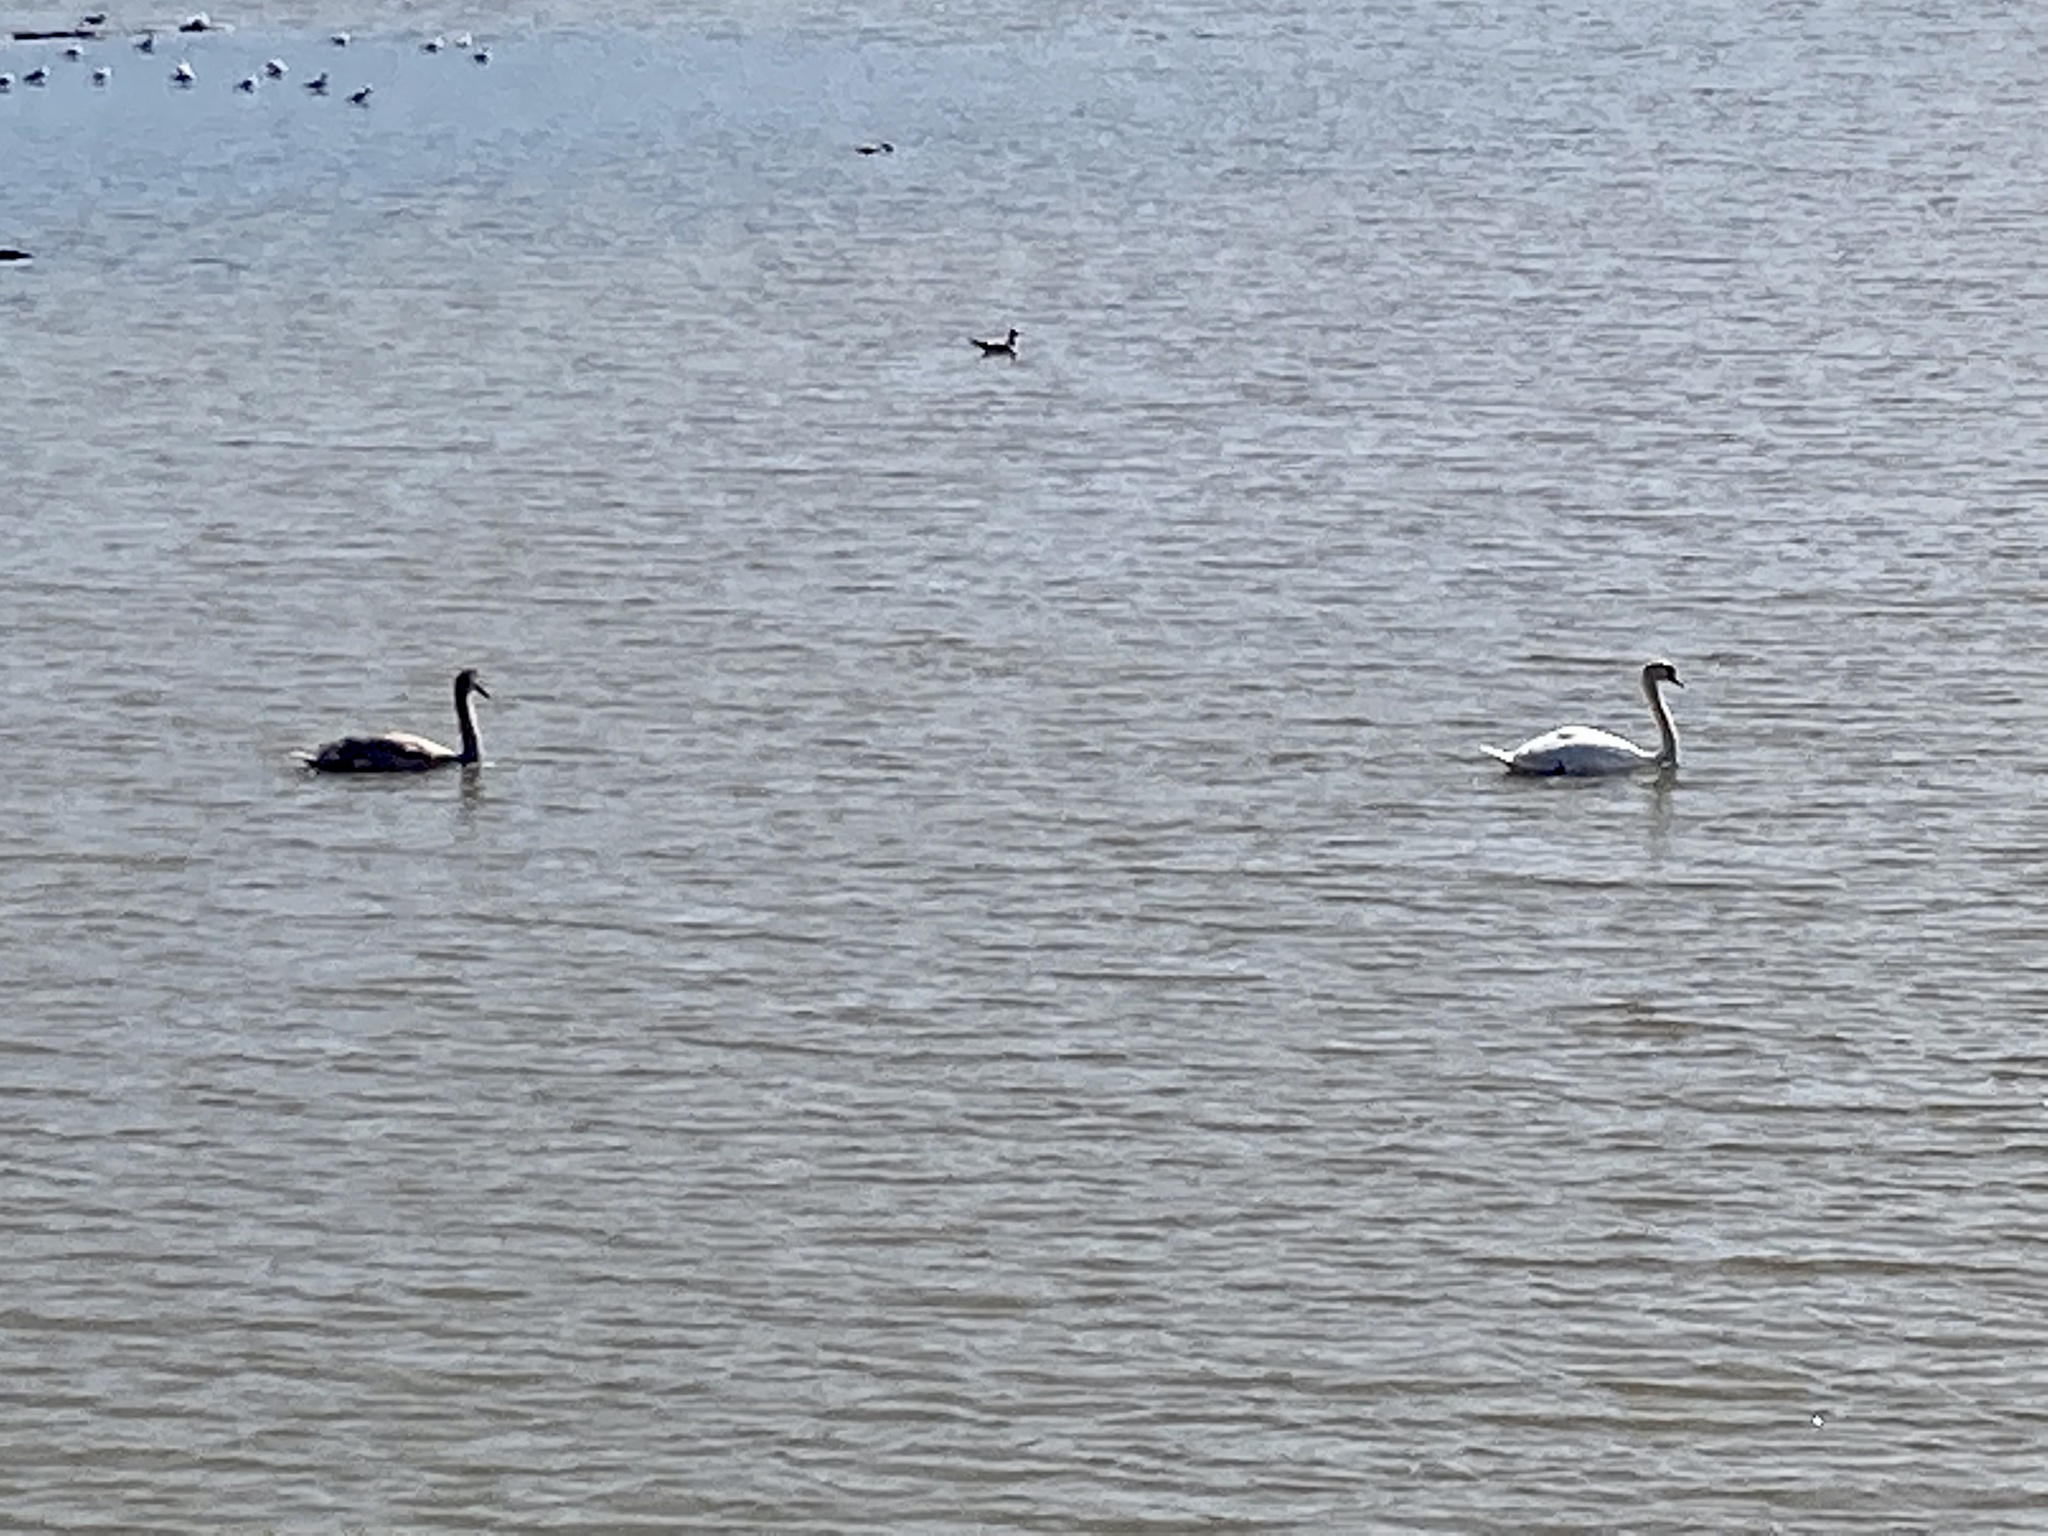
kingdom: Animalia
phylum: Chordata
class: Aves
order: Anseriformes
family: Anatidae
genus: Cygnus
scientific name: Cygnus olor
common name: Mute swan
